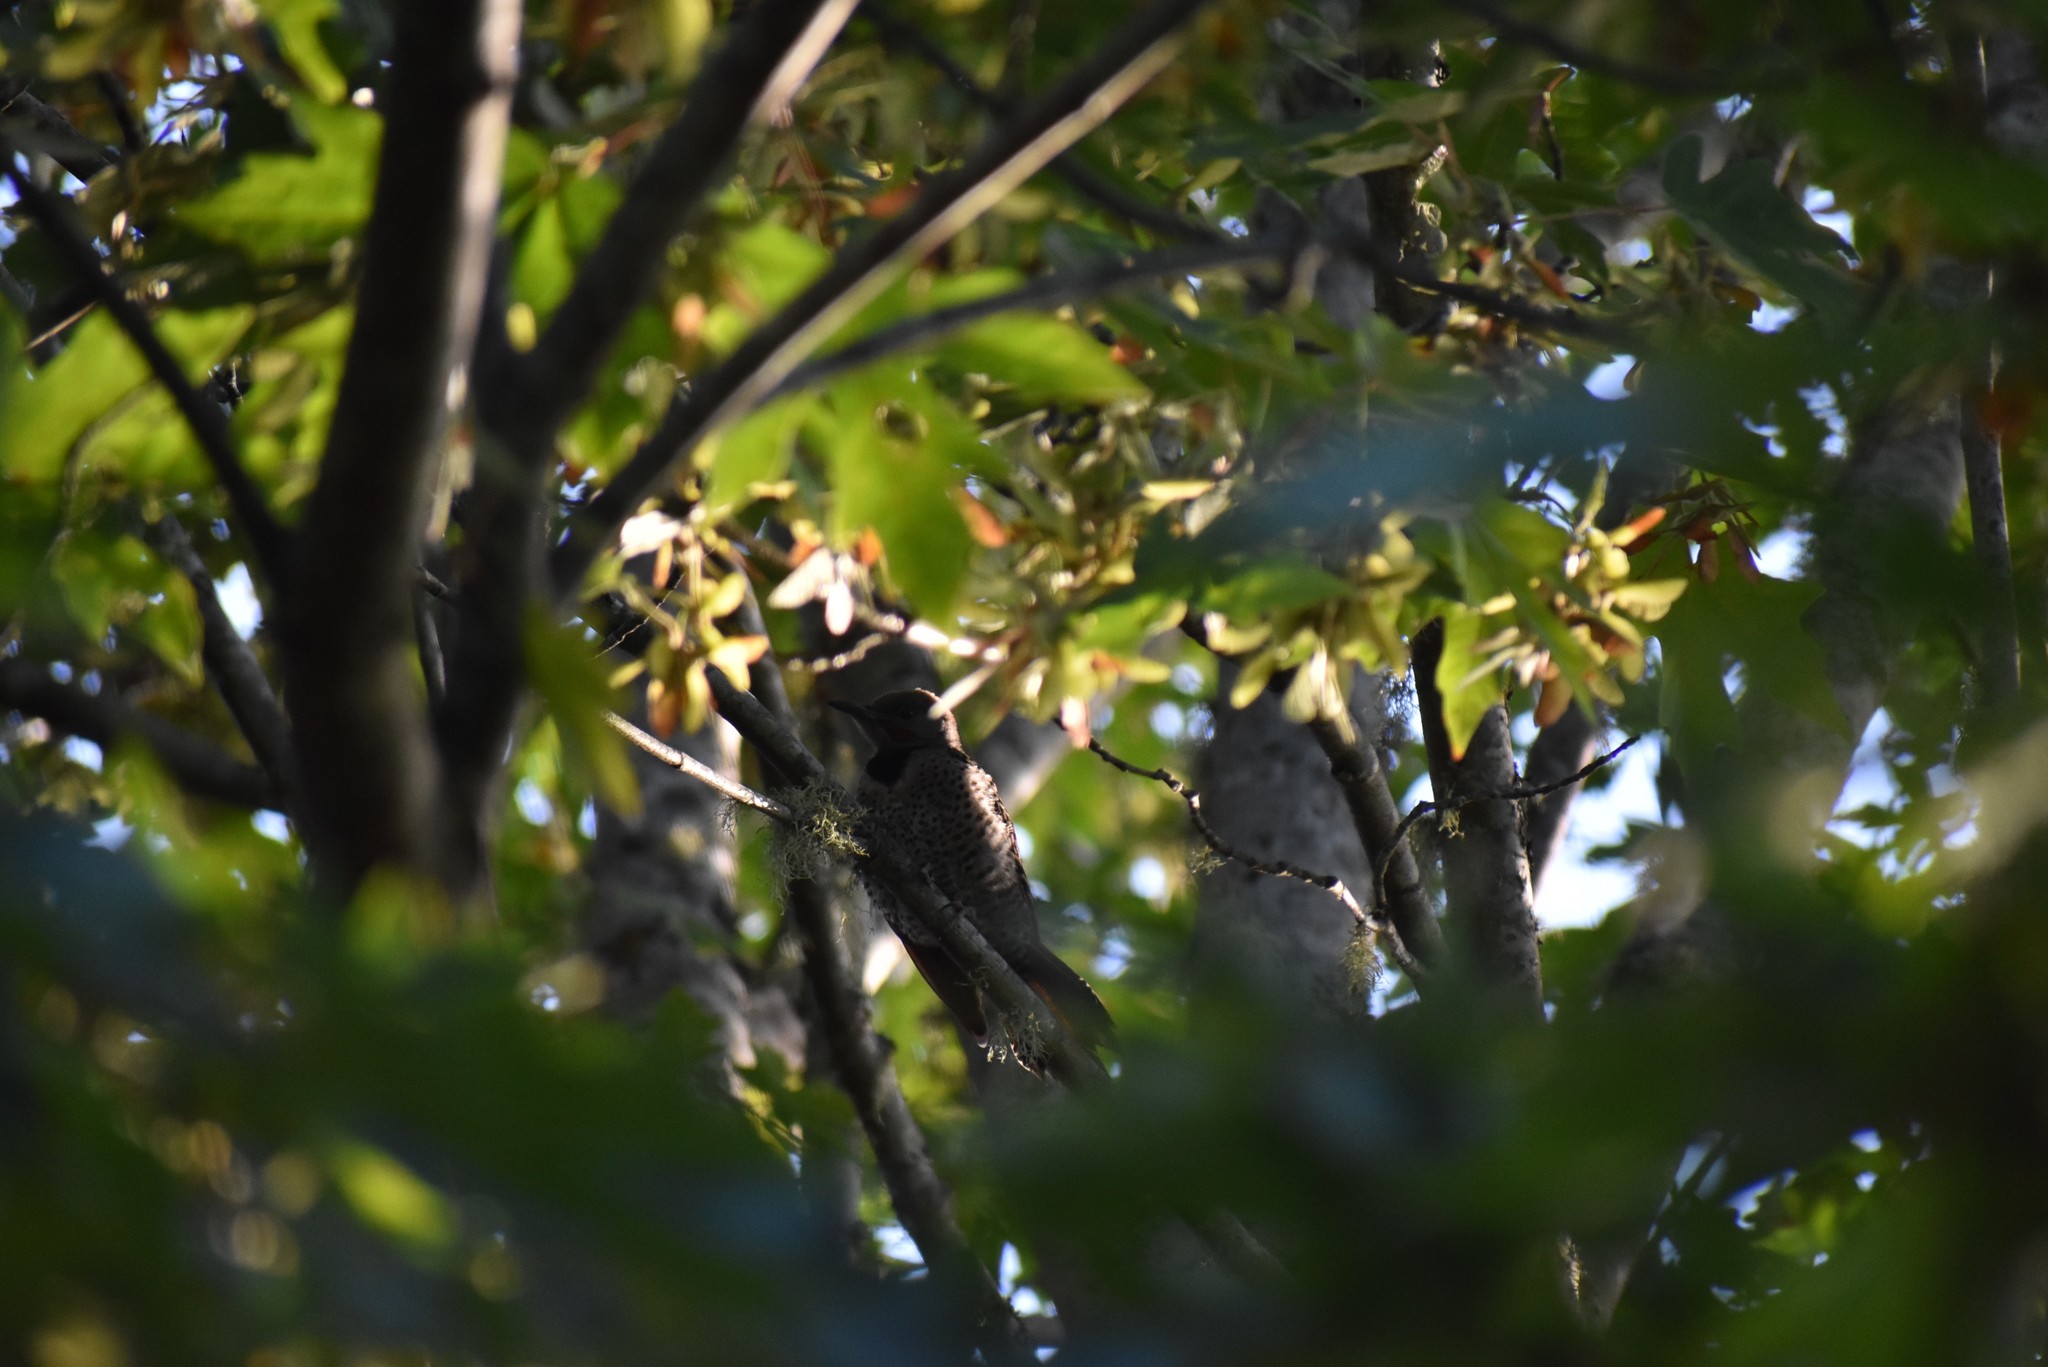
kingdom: Animalia
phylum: Chordata
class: Aves
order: Piciformes
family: Picidae
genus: Colaptes
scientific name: Colaptes auratus
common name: Northern flicker
